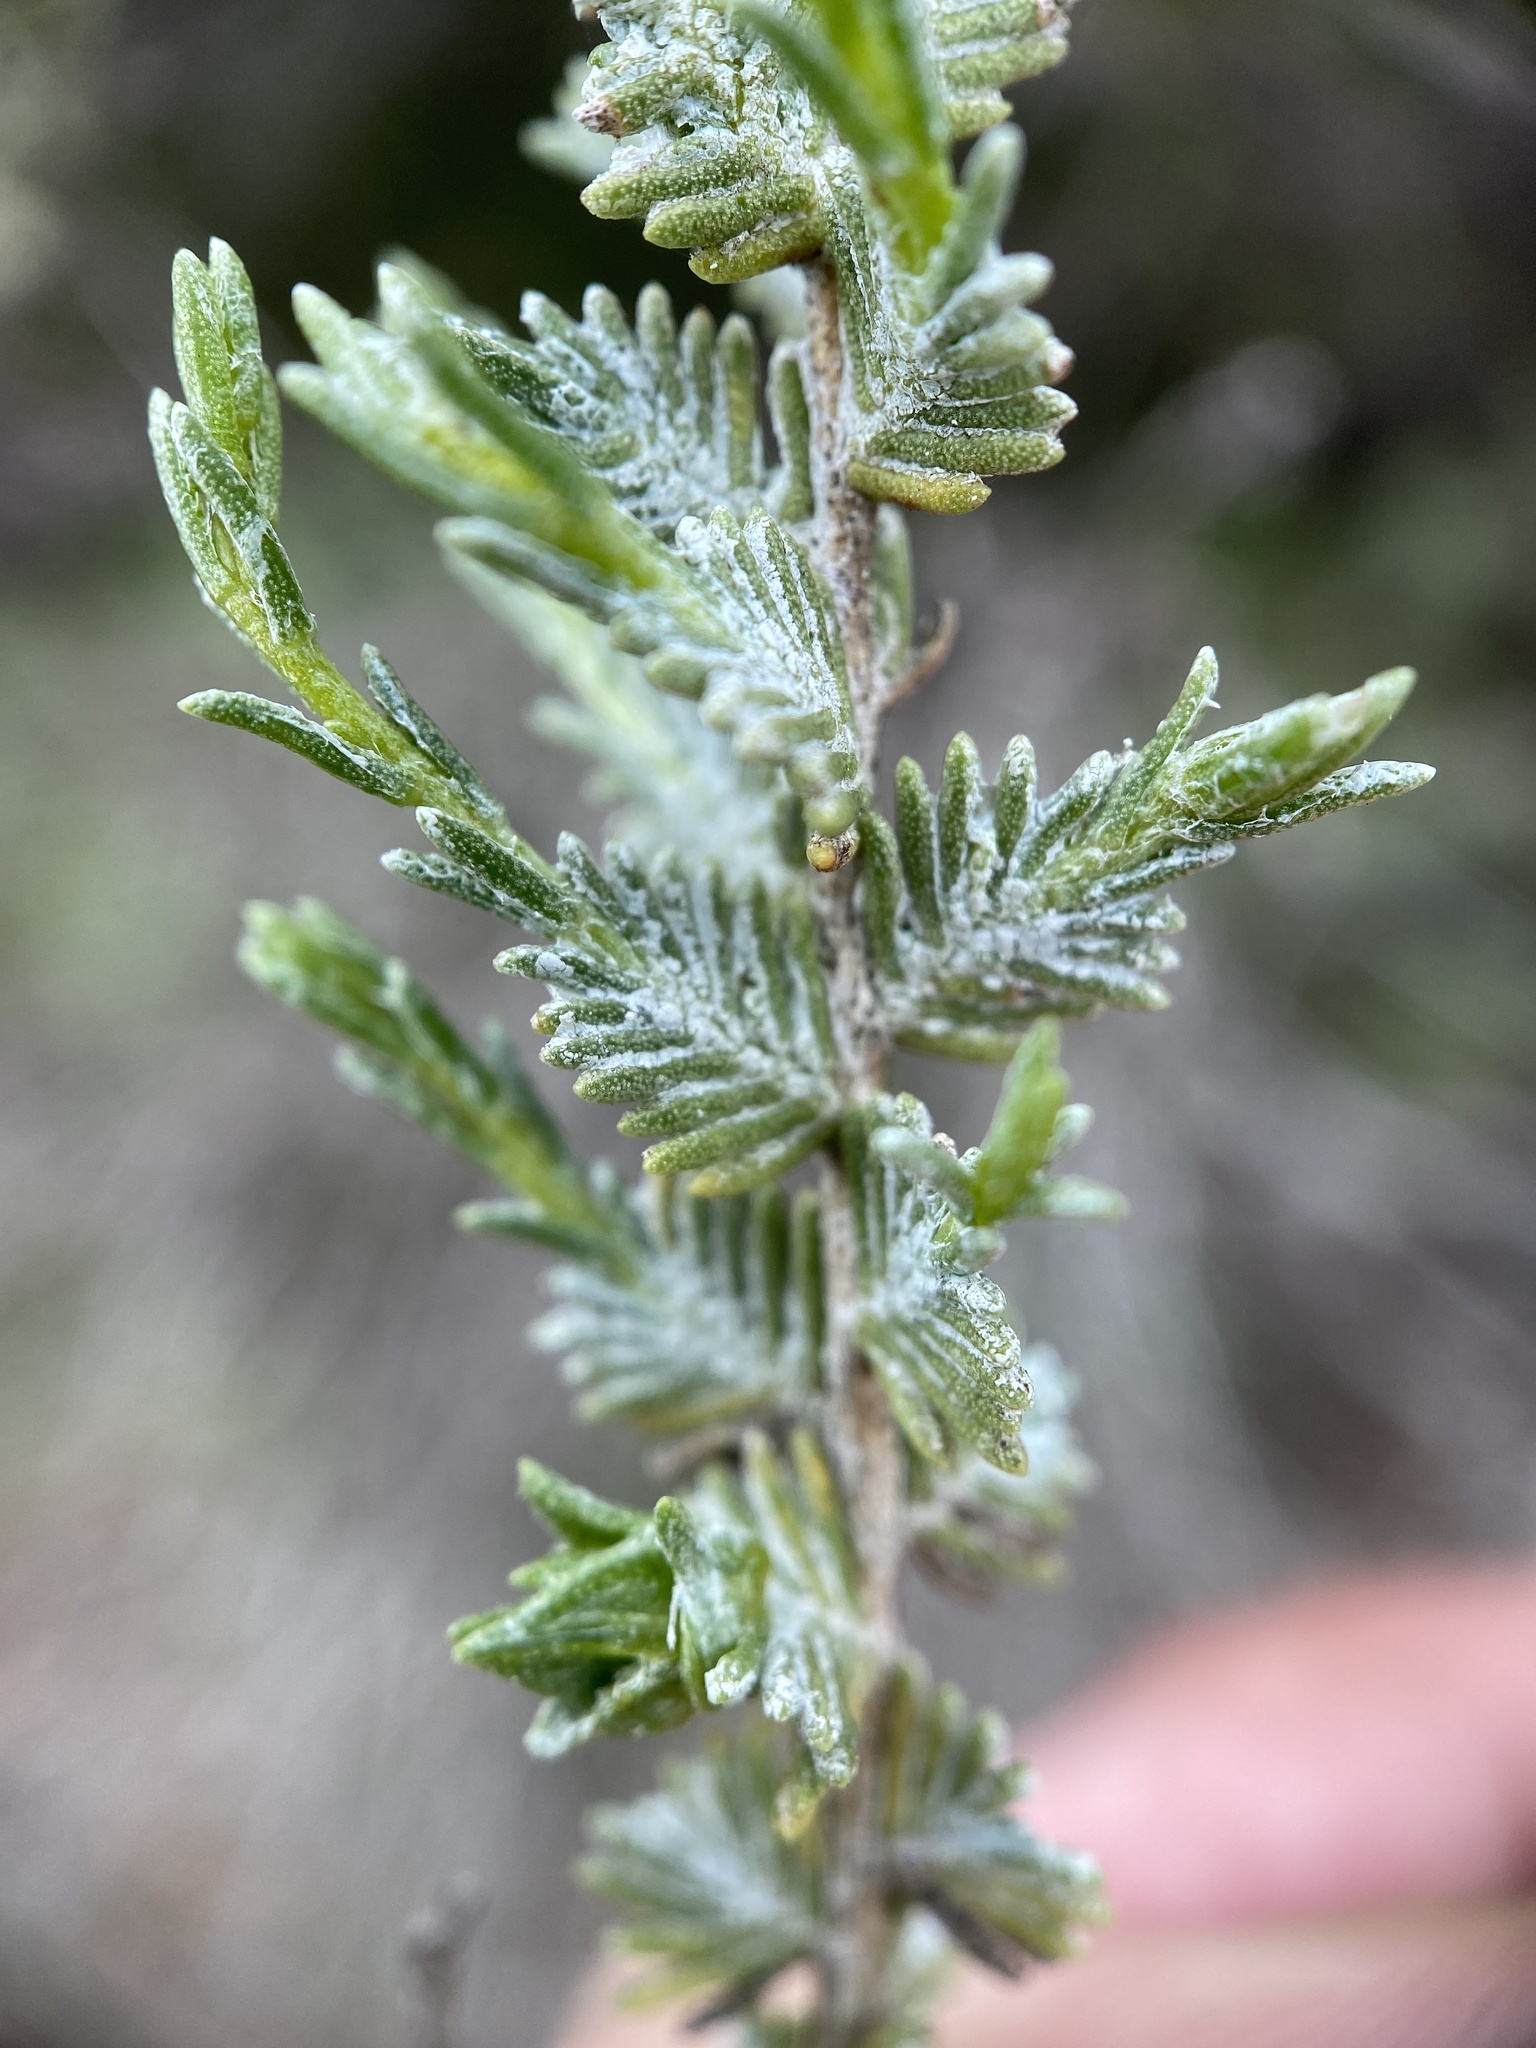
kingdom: Plantae
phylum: Tracheophyta
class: Magnoliopsida
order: Asterales
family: Asteraceae
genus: Ericameria
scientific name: Ericameria ericoides
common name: California goldenbush
